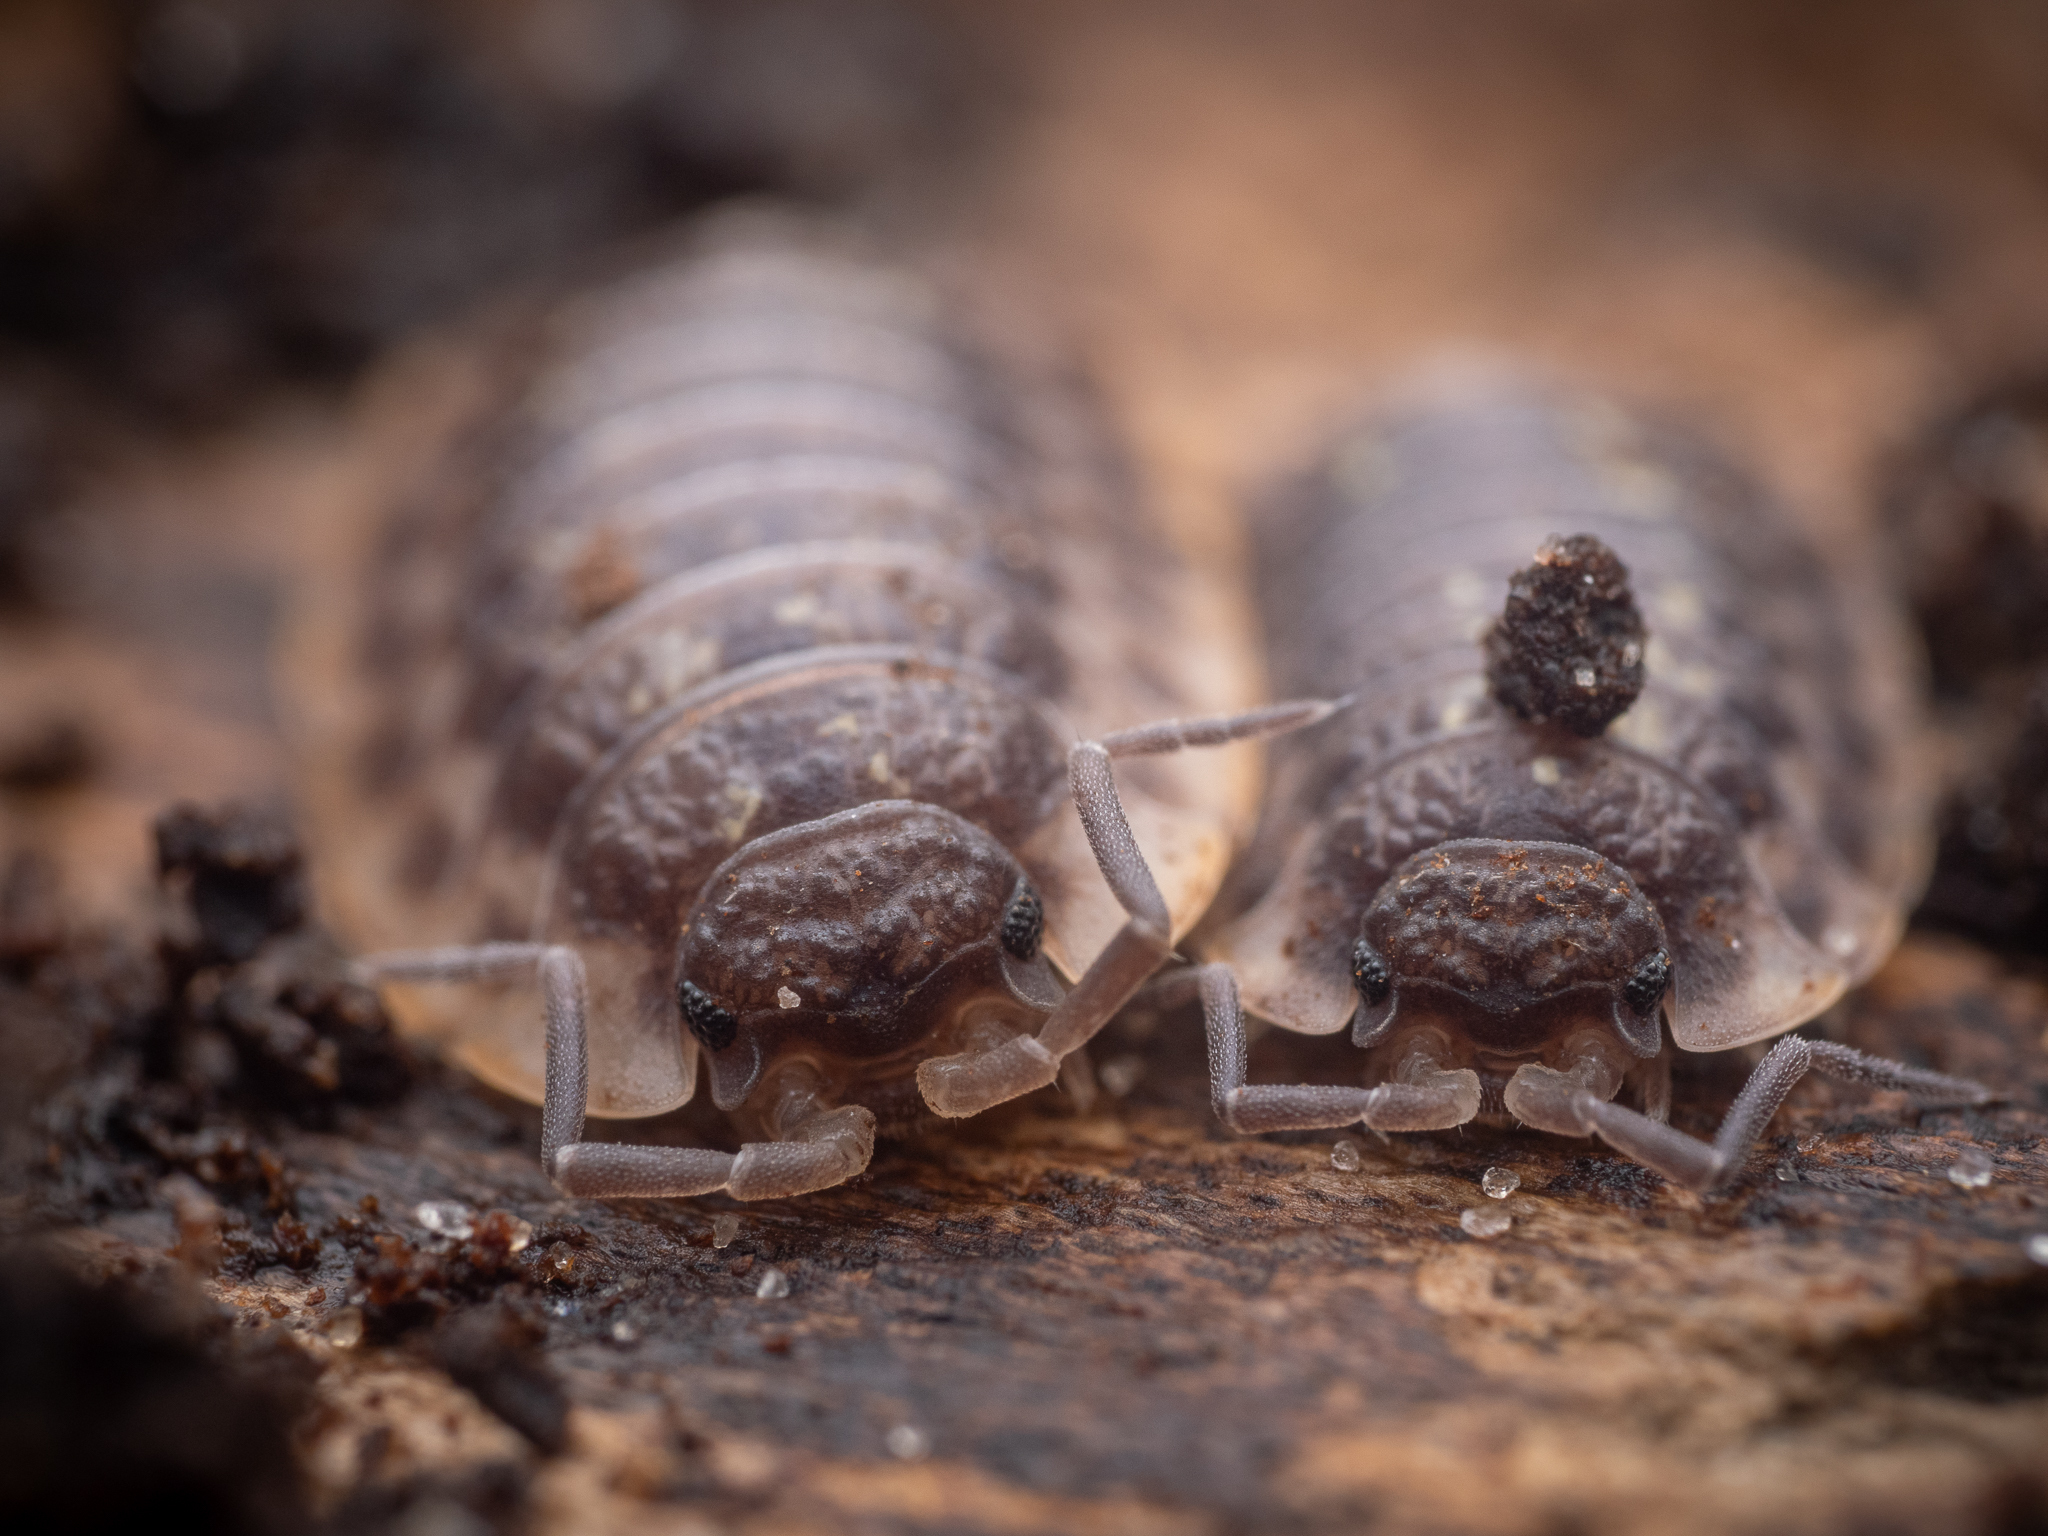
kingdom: Animalia
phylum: Arthropoda
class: Malacostraca
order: Isopoda
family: Oniscidae
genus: Oniscus
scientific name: Oniscus asellus
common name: Common shiny woodlouse
